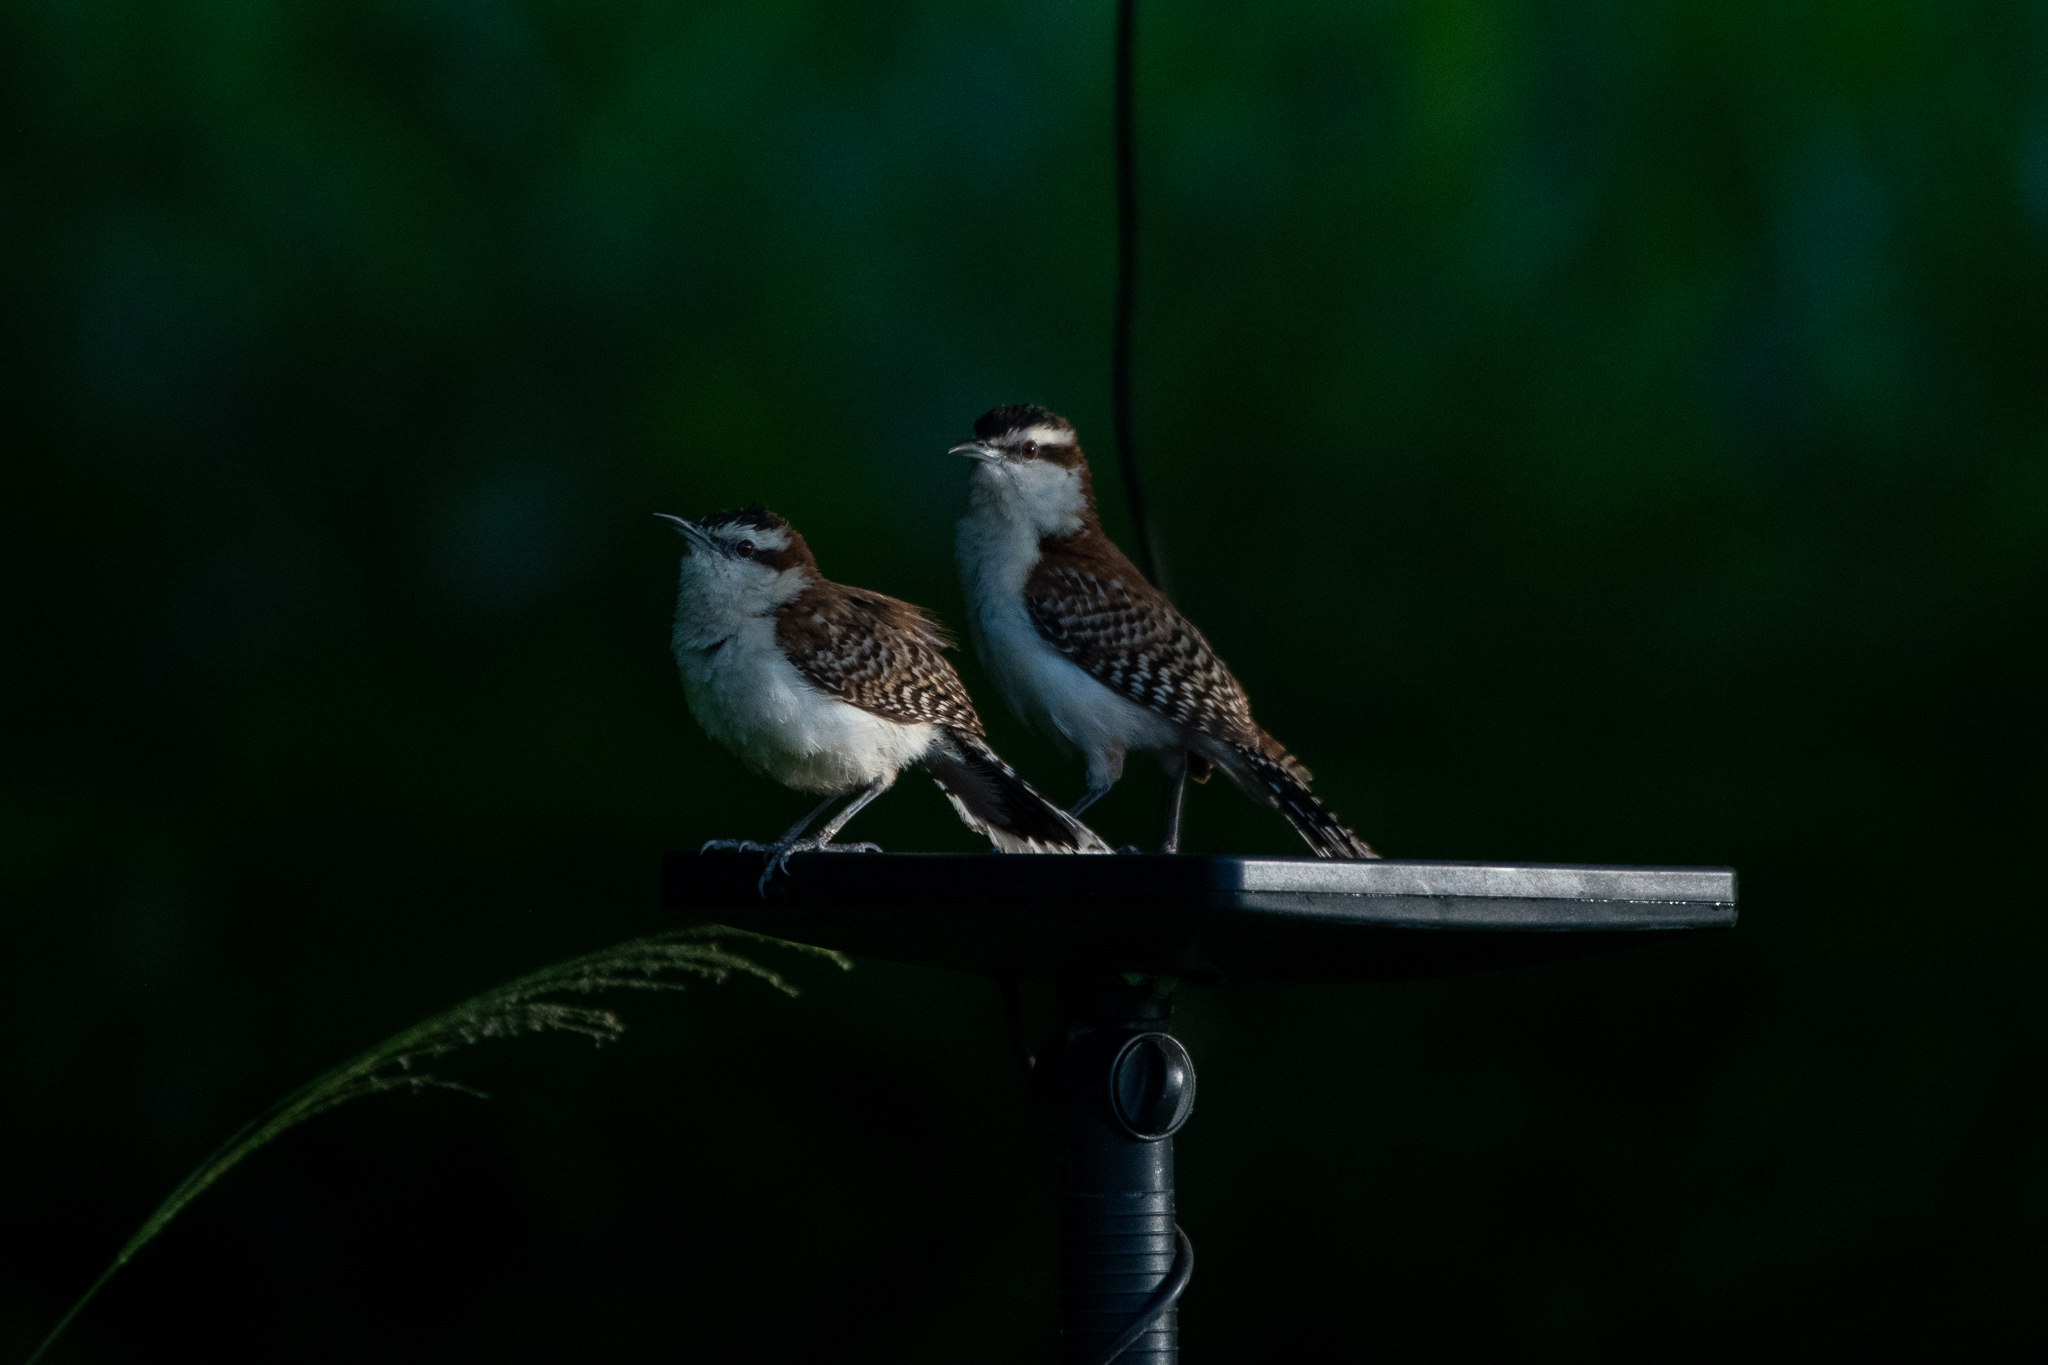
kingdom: Animalia
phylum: Chordata
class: Aves
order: Passeriformes
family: Troglodytidae
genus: Campylorhynchus
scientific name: Campylorhynchus rufinucha
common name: Rufous-naped wren
